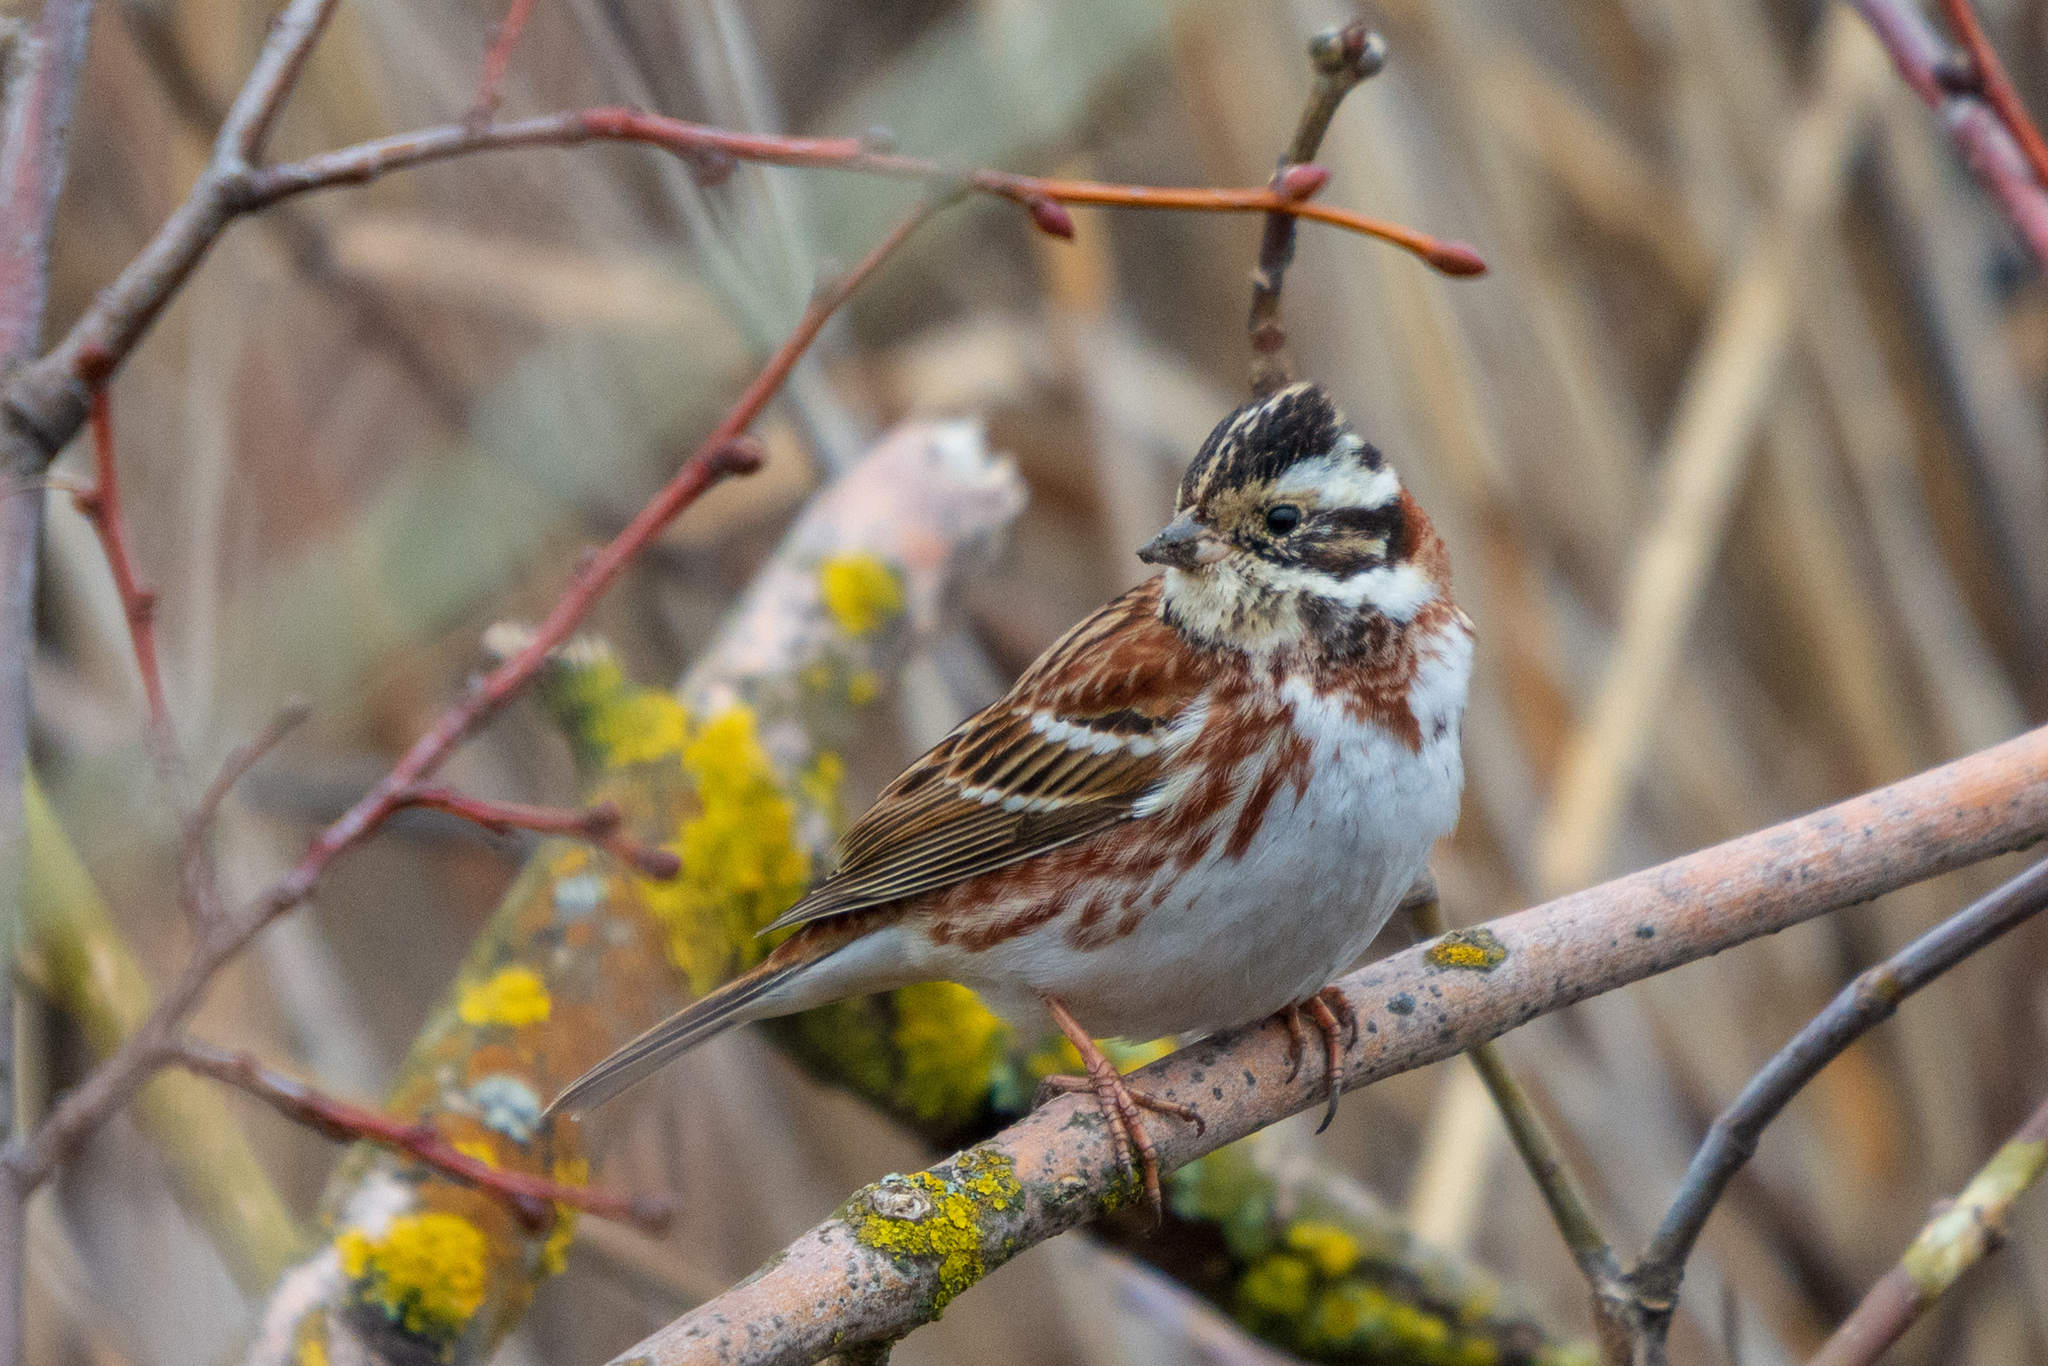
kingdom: Animalia
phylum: Chordata
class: Aves
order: Passeriformes
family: Emberizidae
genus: Emberiza
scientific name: Emberiza rustica
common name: Rustic bunting
